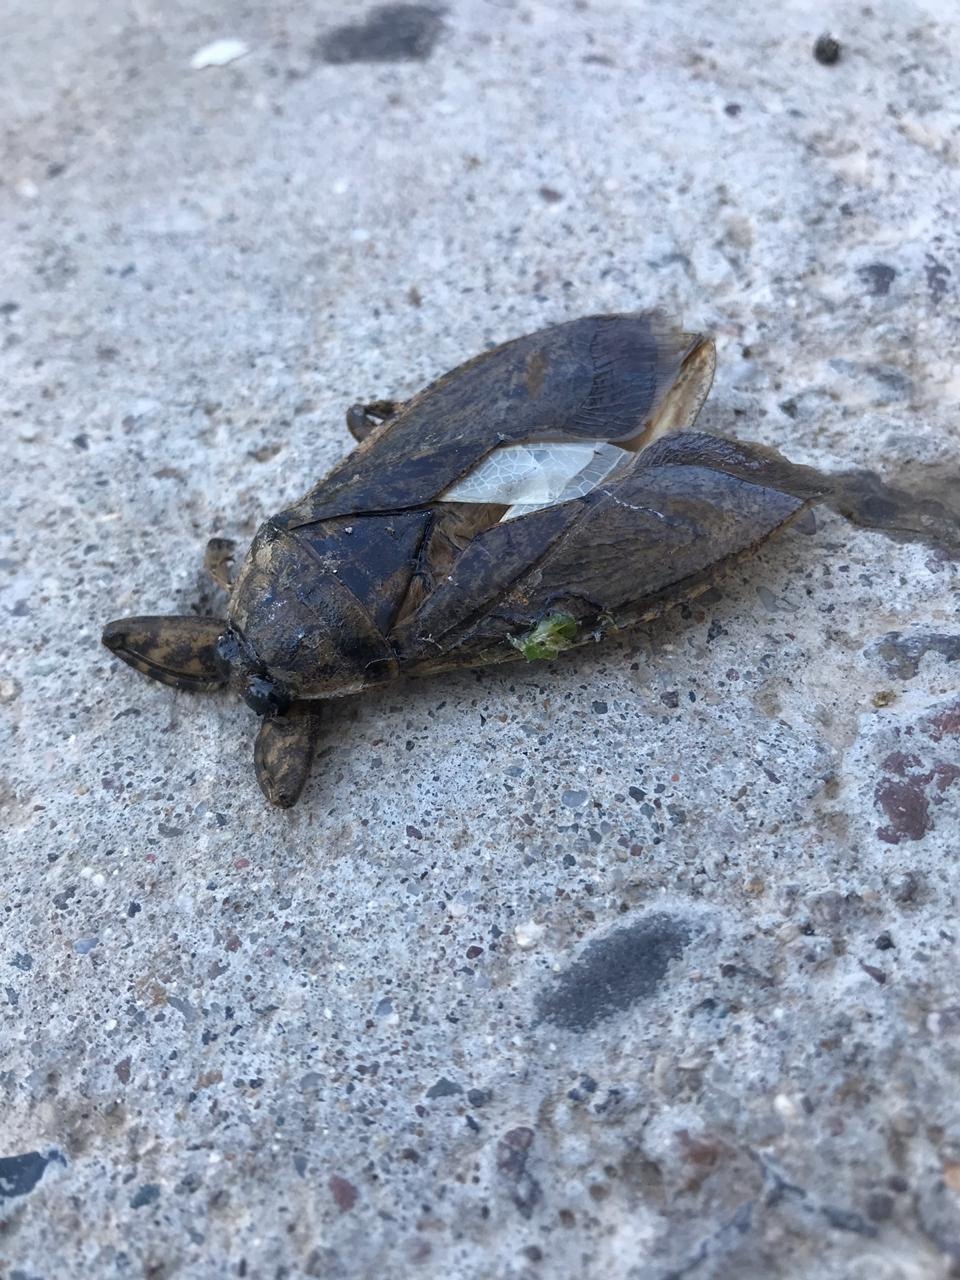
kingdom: Animalia
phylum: Arthropoda
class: Insecta
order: Hemiptera
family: Belostomatidae
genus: Lethocerus
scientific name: Lethocerus medius
